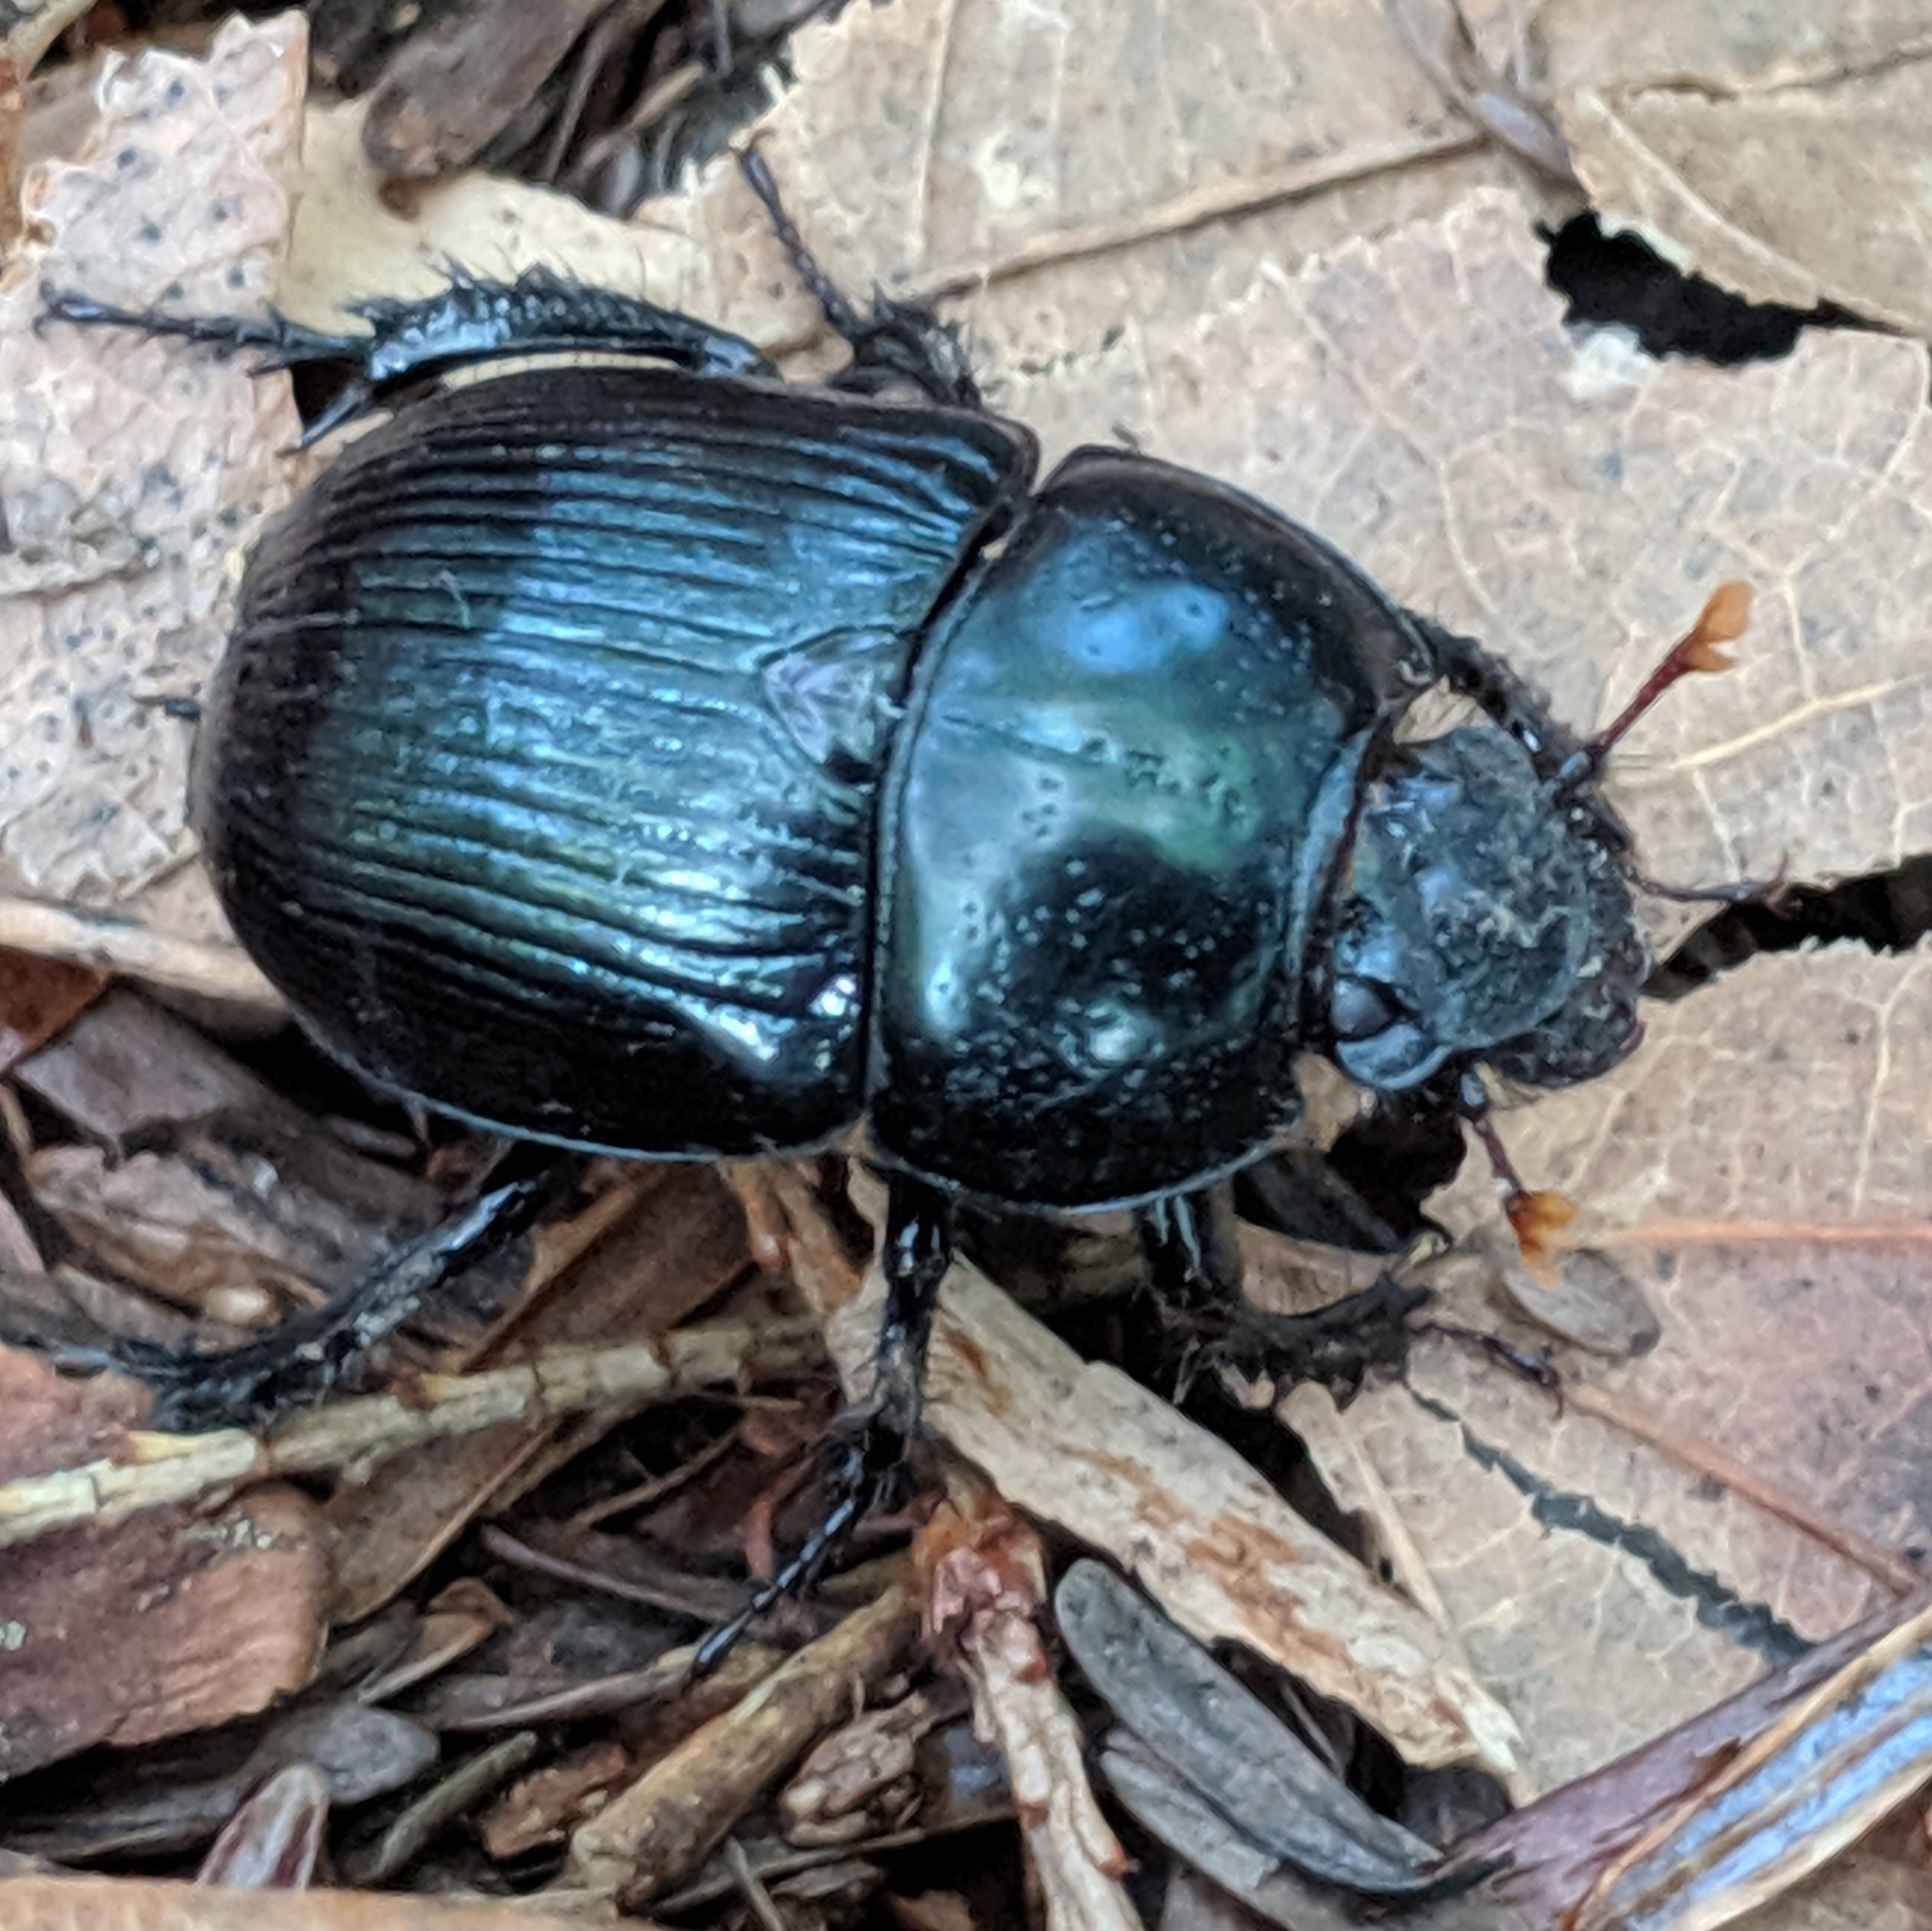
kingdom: Animalia
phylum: Arthropoda
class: Insecta
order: Coleoptera
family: Geotrupidae
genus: Anoplotrupes
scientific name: Anoplotrupes balyi
